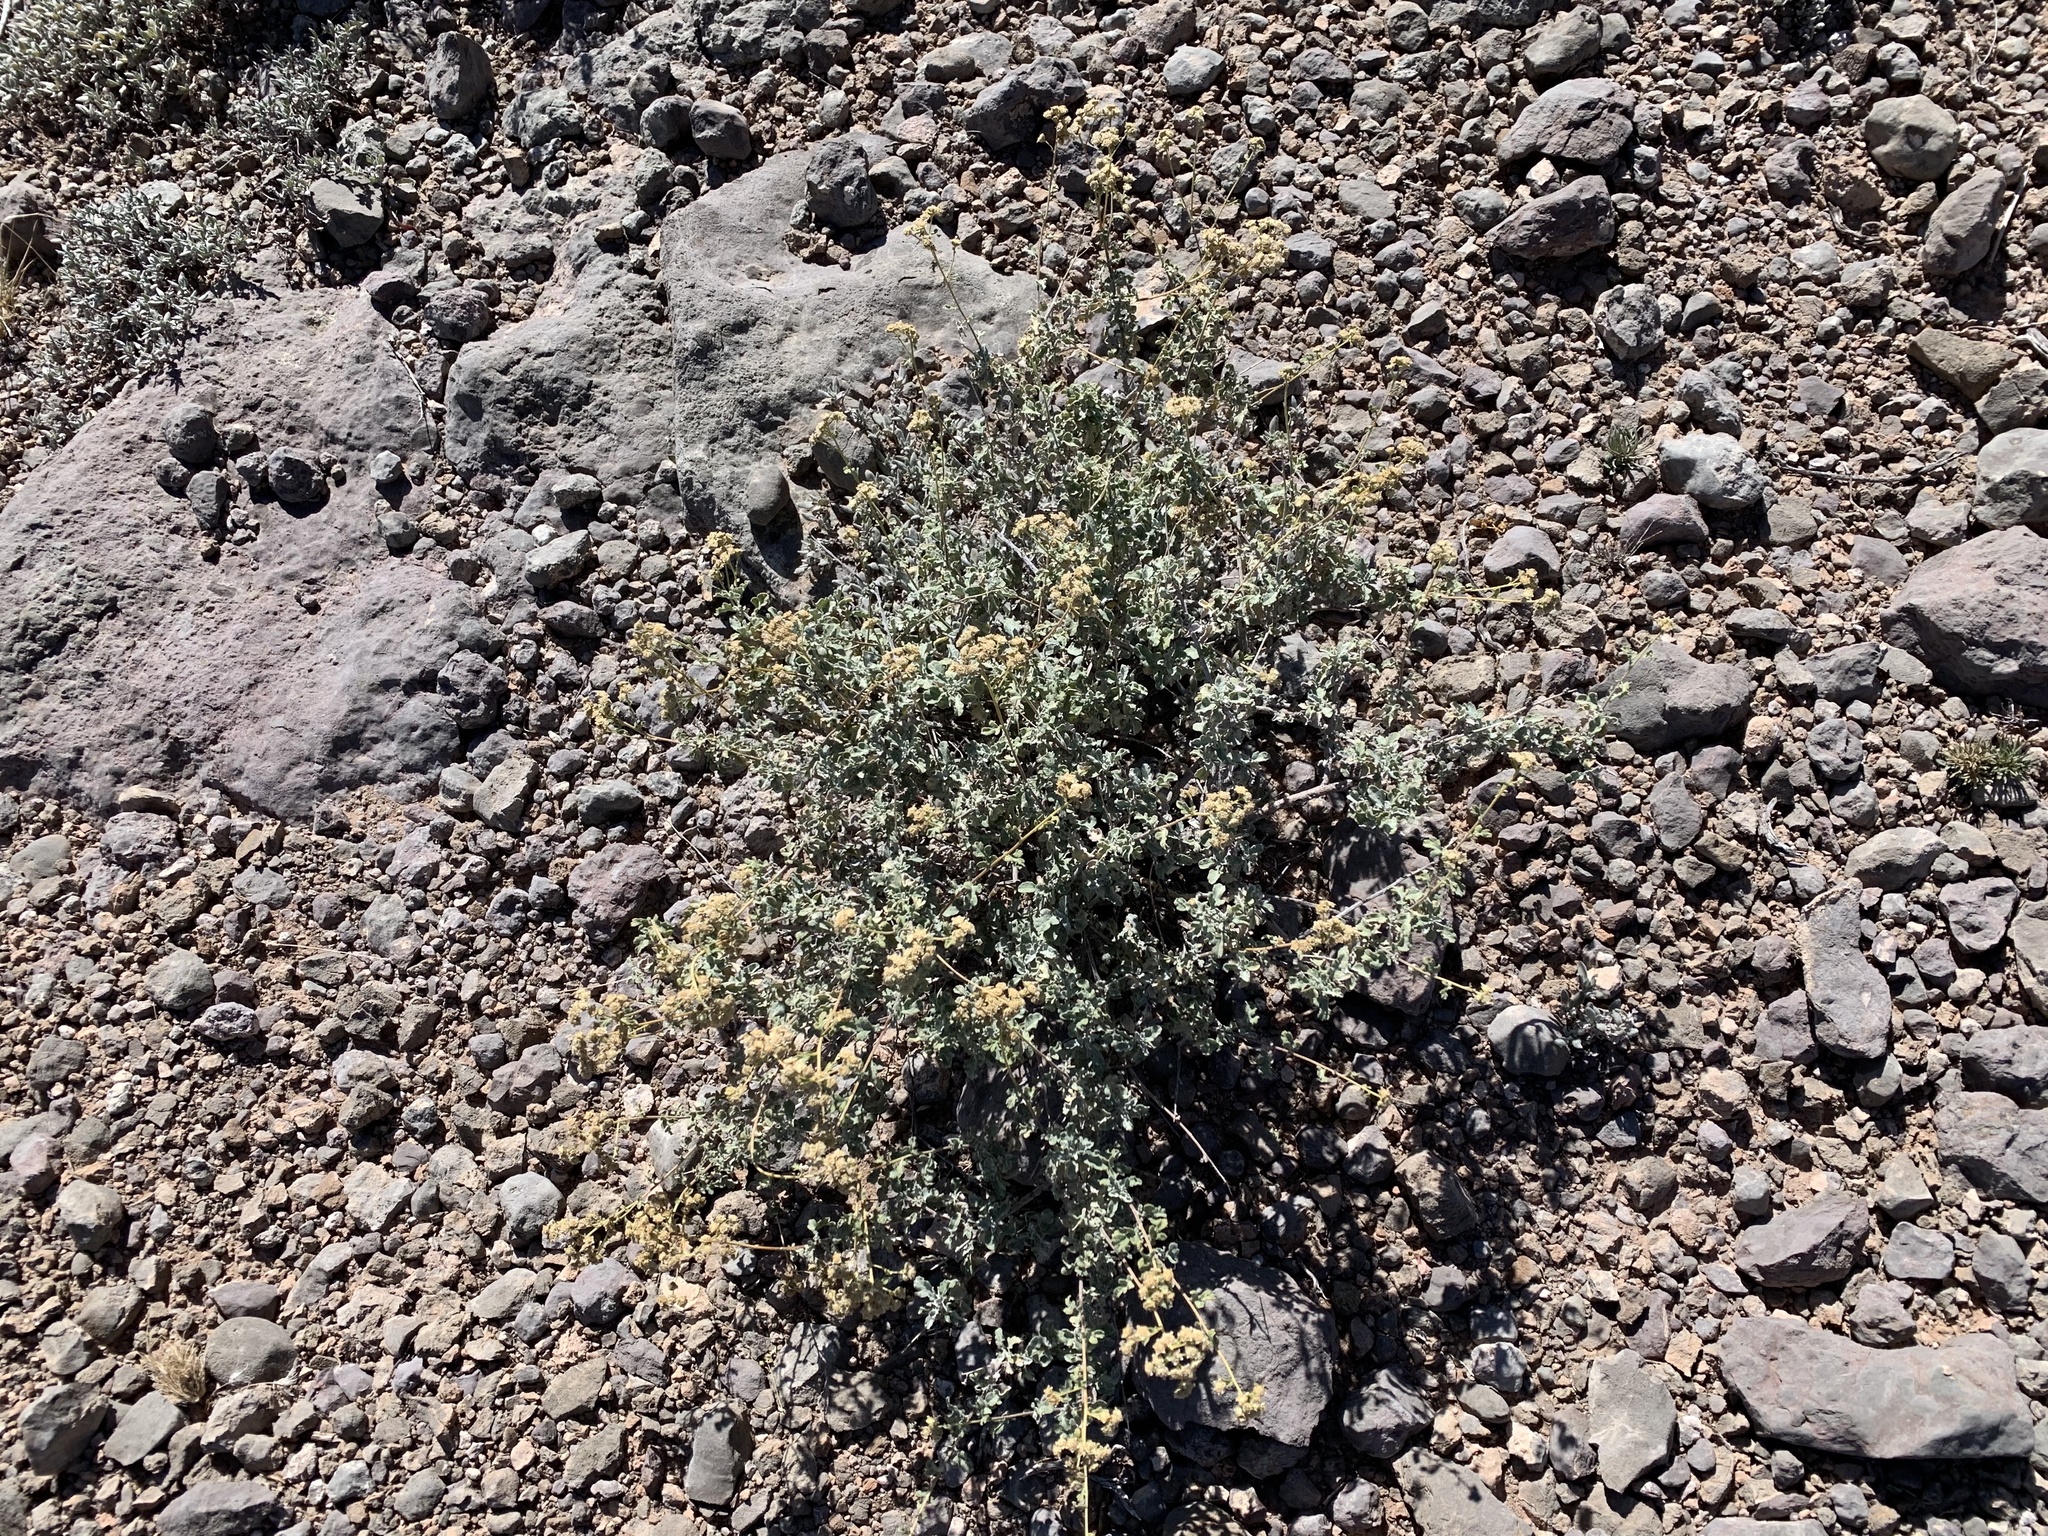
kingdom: Plantae
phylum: Tracheophyta
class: Magnoliopsida
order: Asterales
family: Asteraceae
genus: Parthenium
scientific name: Parthenium incanum
